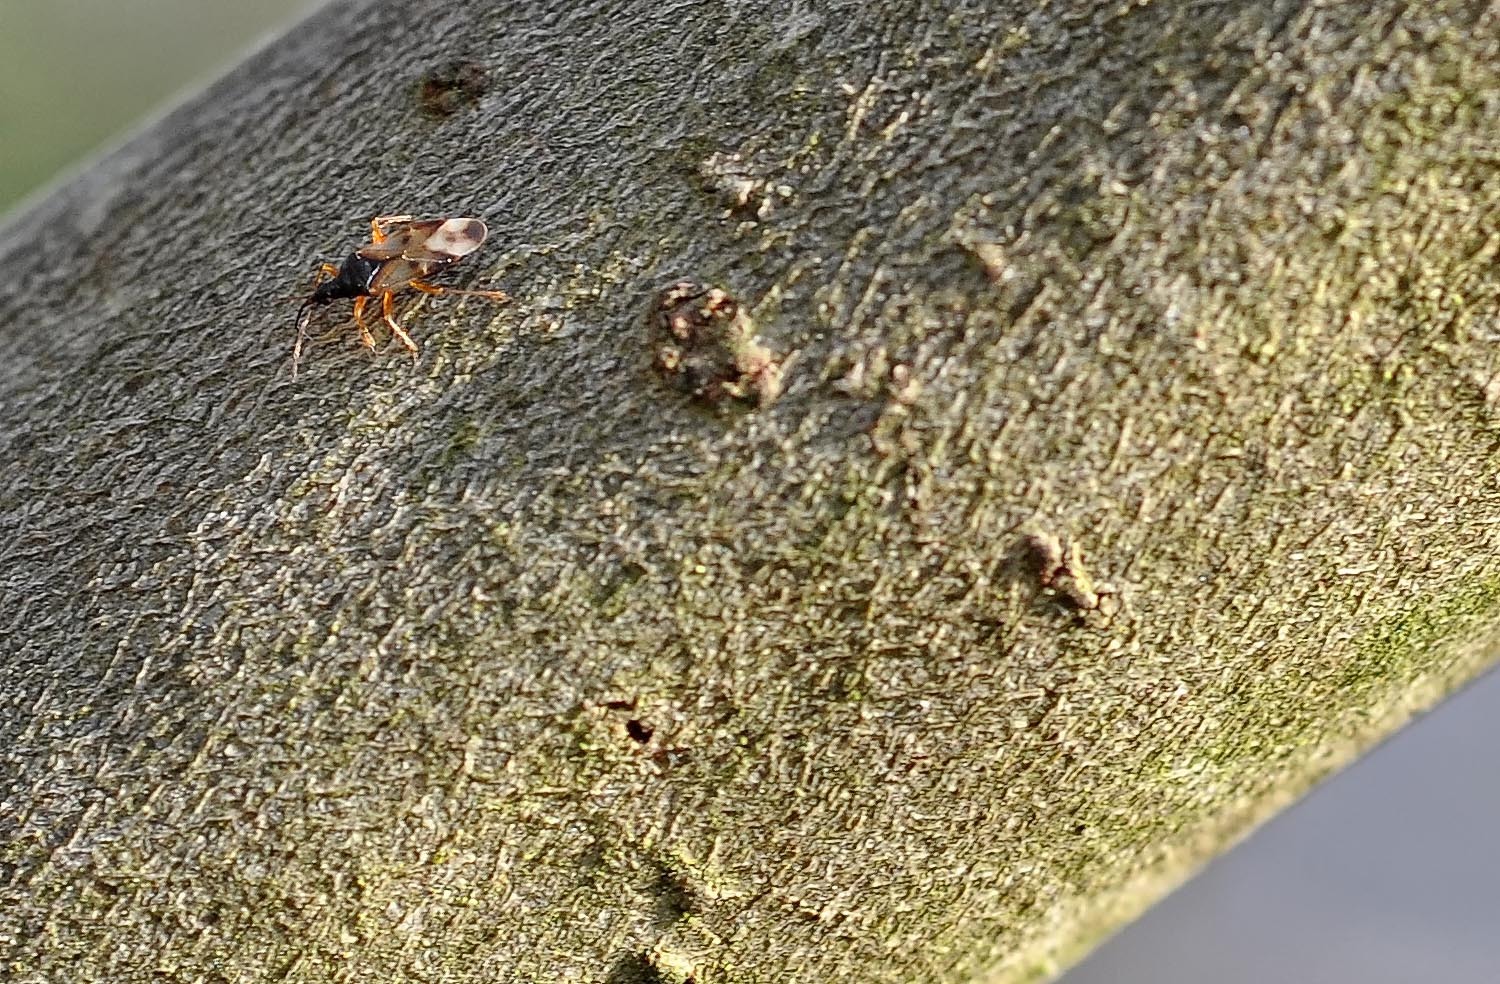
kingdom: Animalia
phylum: Arthropoda
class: Insecta
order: Hemiptera
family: Anthocoridae
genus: Anthocoris
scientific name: Anthocoris nemorum
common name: Minute pirate bug
